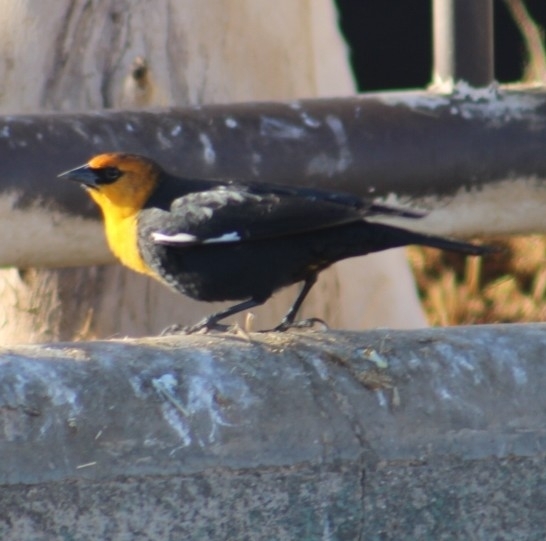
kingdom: Animalia
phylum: Chordata
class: Aves
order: Passeriformes
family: Icteridae
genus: Xanthocephalus
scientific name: Xanthocephalus xanthocephalus
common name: Yellow-headed blackbird
